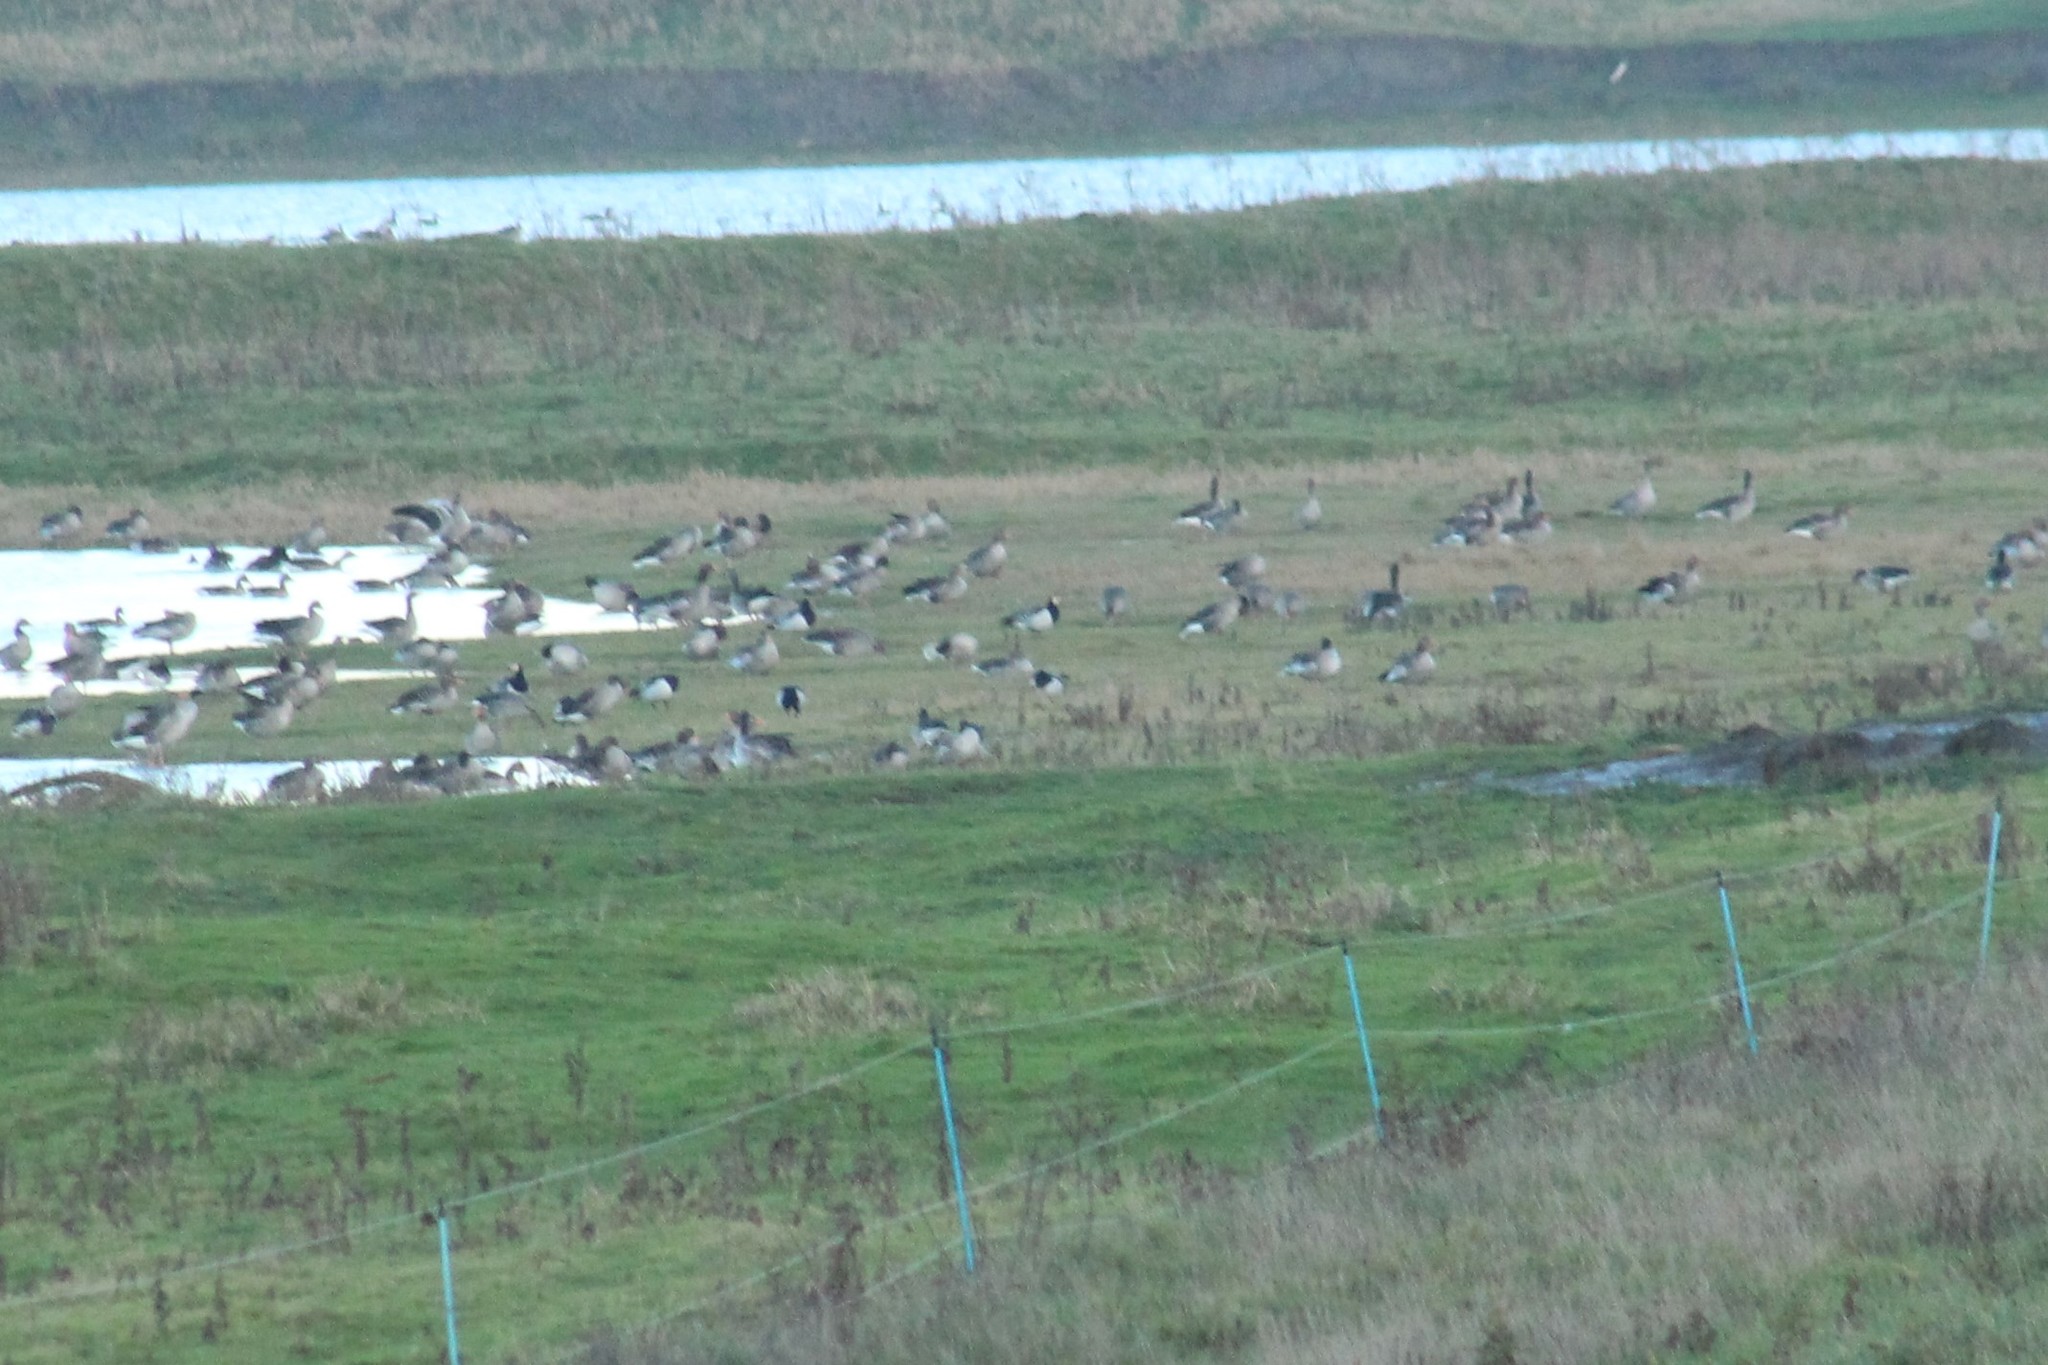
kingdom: Animalia
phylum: Chordata
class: Aves
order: Anseriformes
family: Anatidae
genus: Anser
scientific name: Anser anser
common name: Greylag goose
